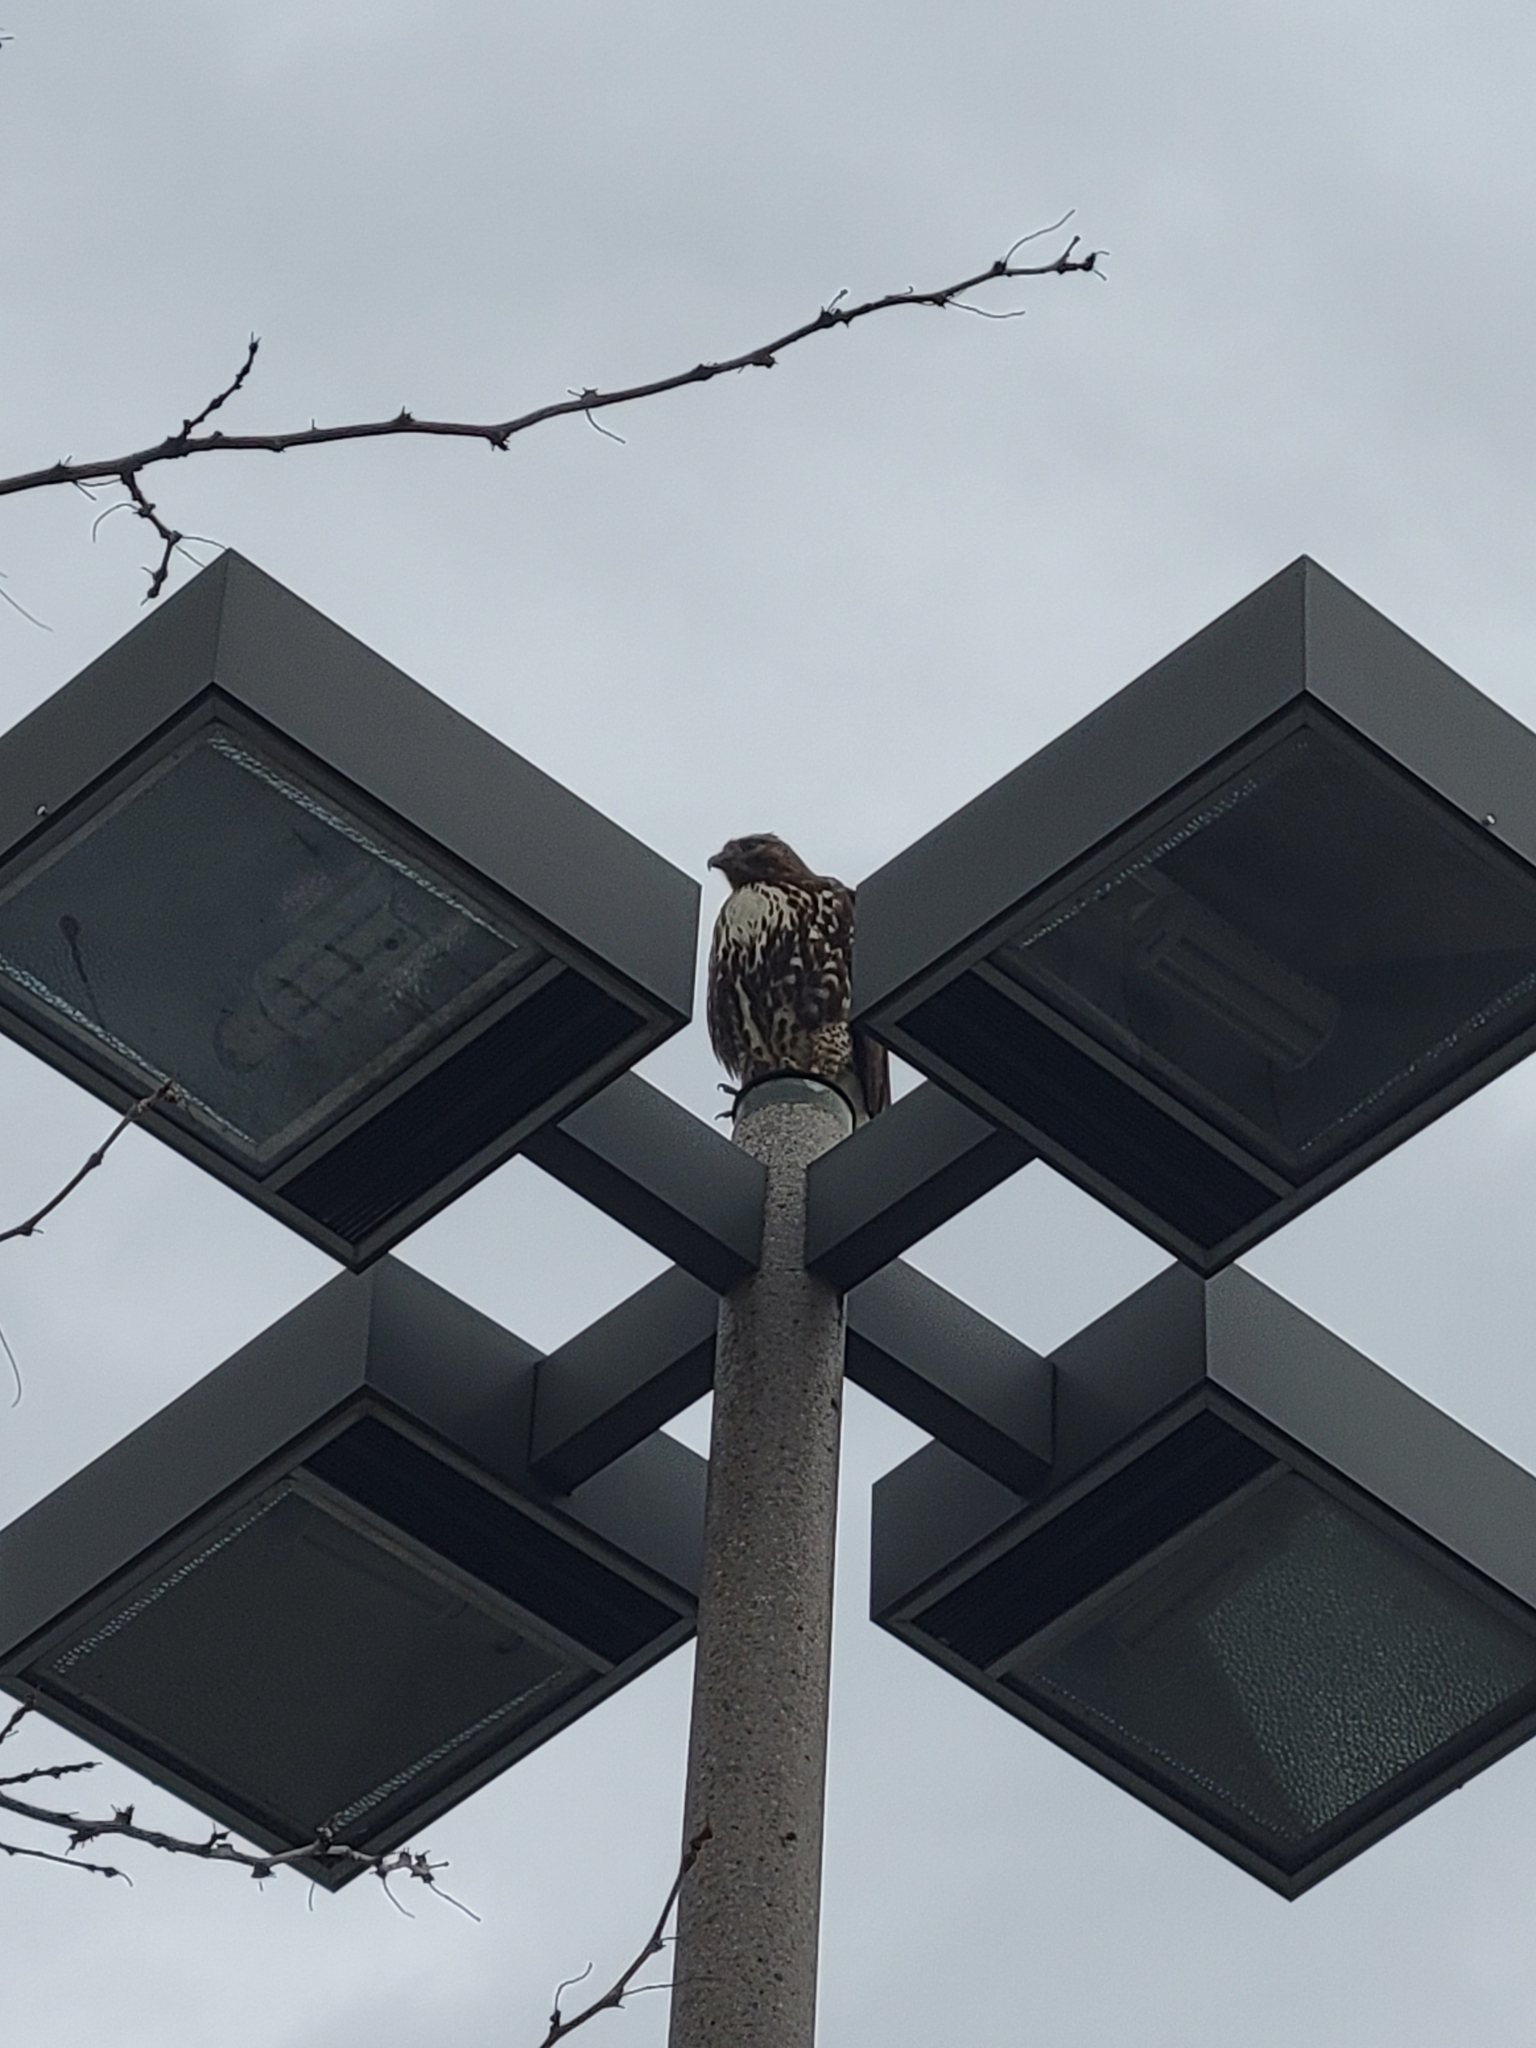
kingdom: Animalia
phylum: Chordata
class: Aves
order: Accipitriformes
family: Accipitridae
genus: Buteo
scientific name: Buteo jamaicensis
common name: Red-tailed hawk
